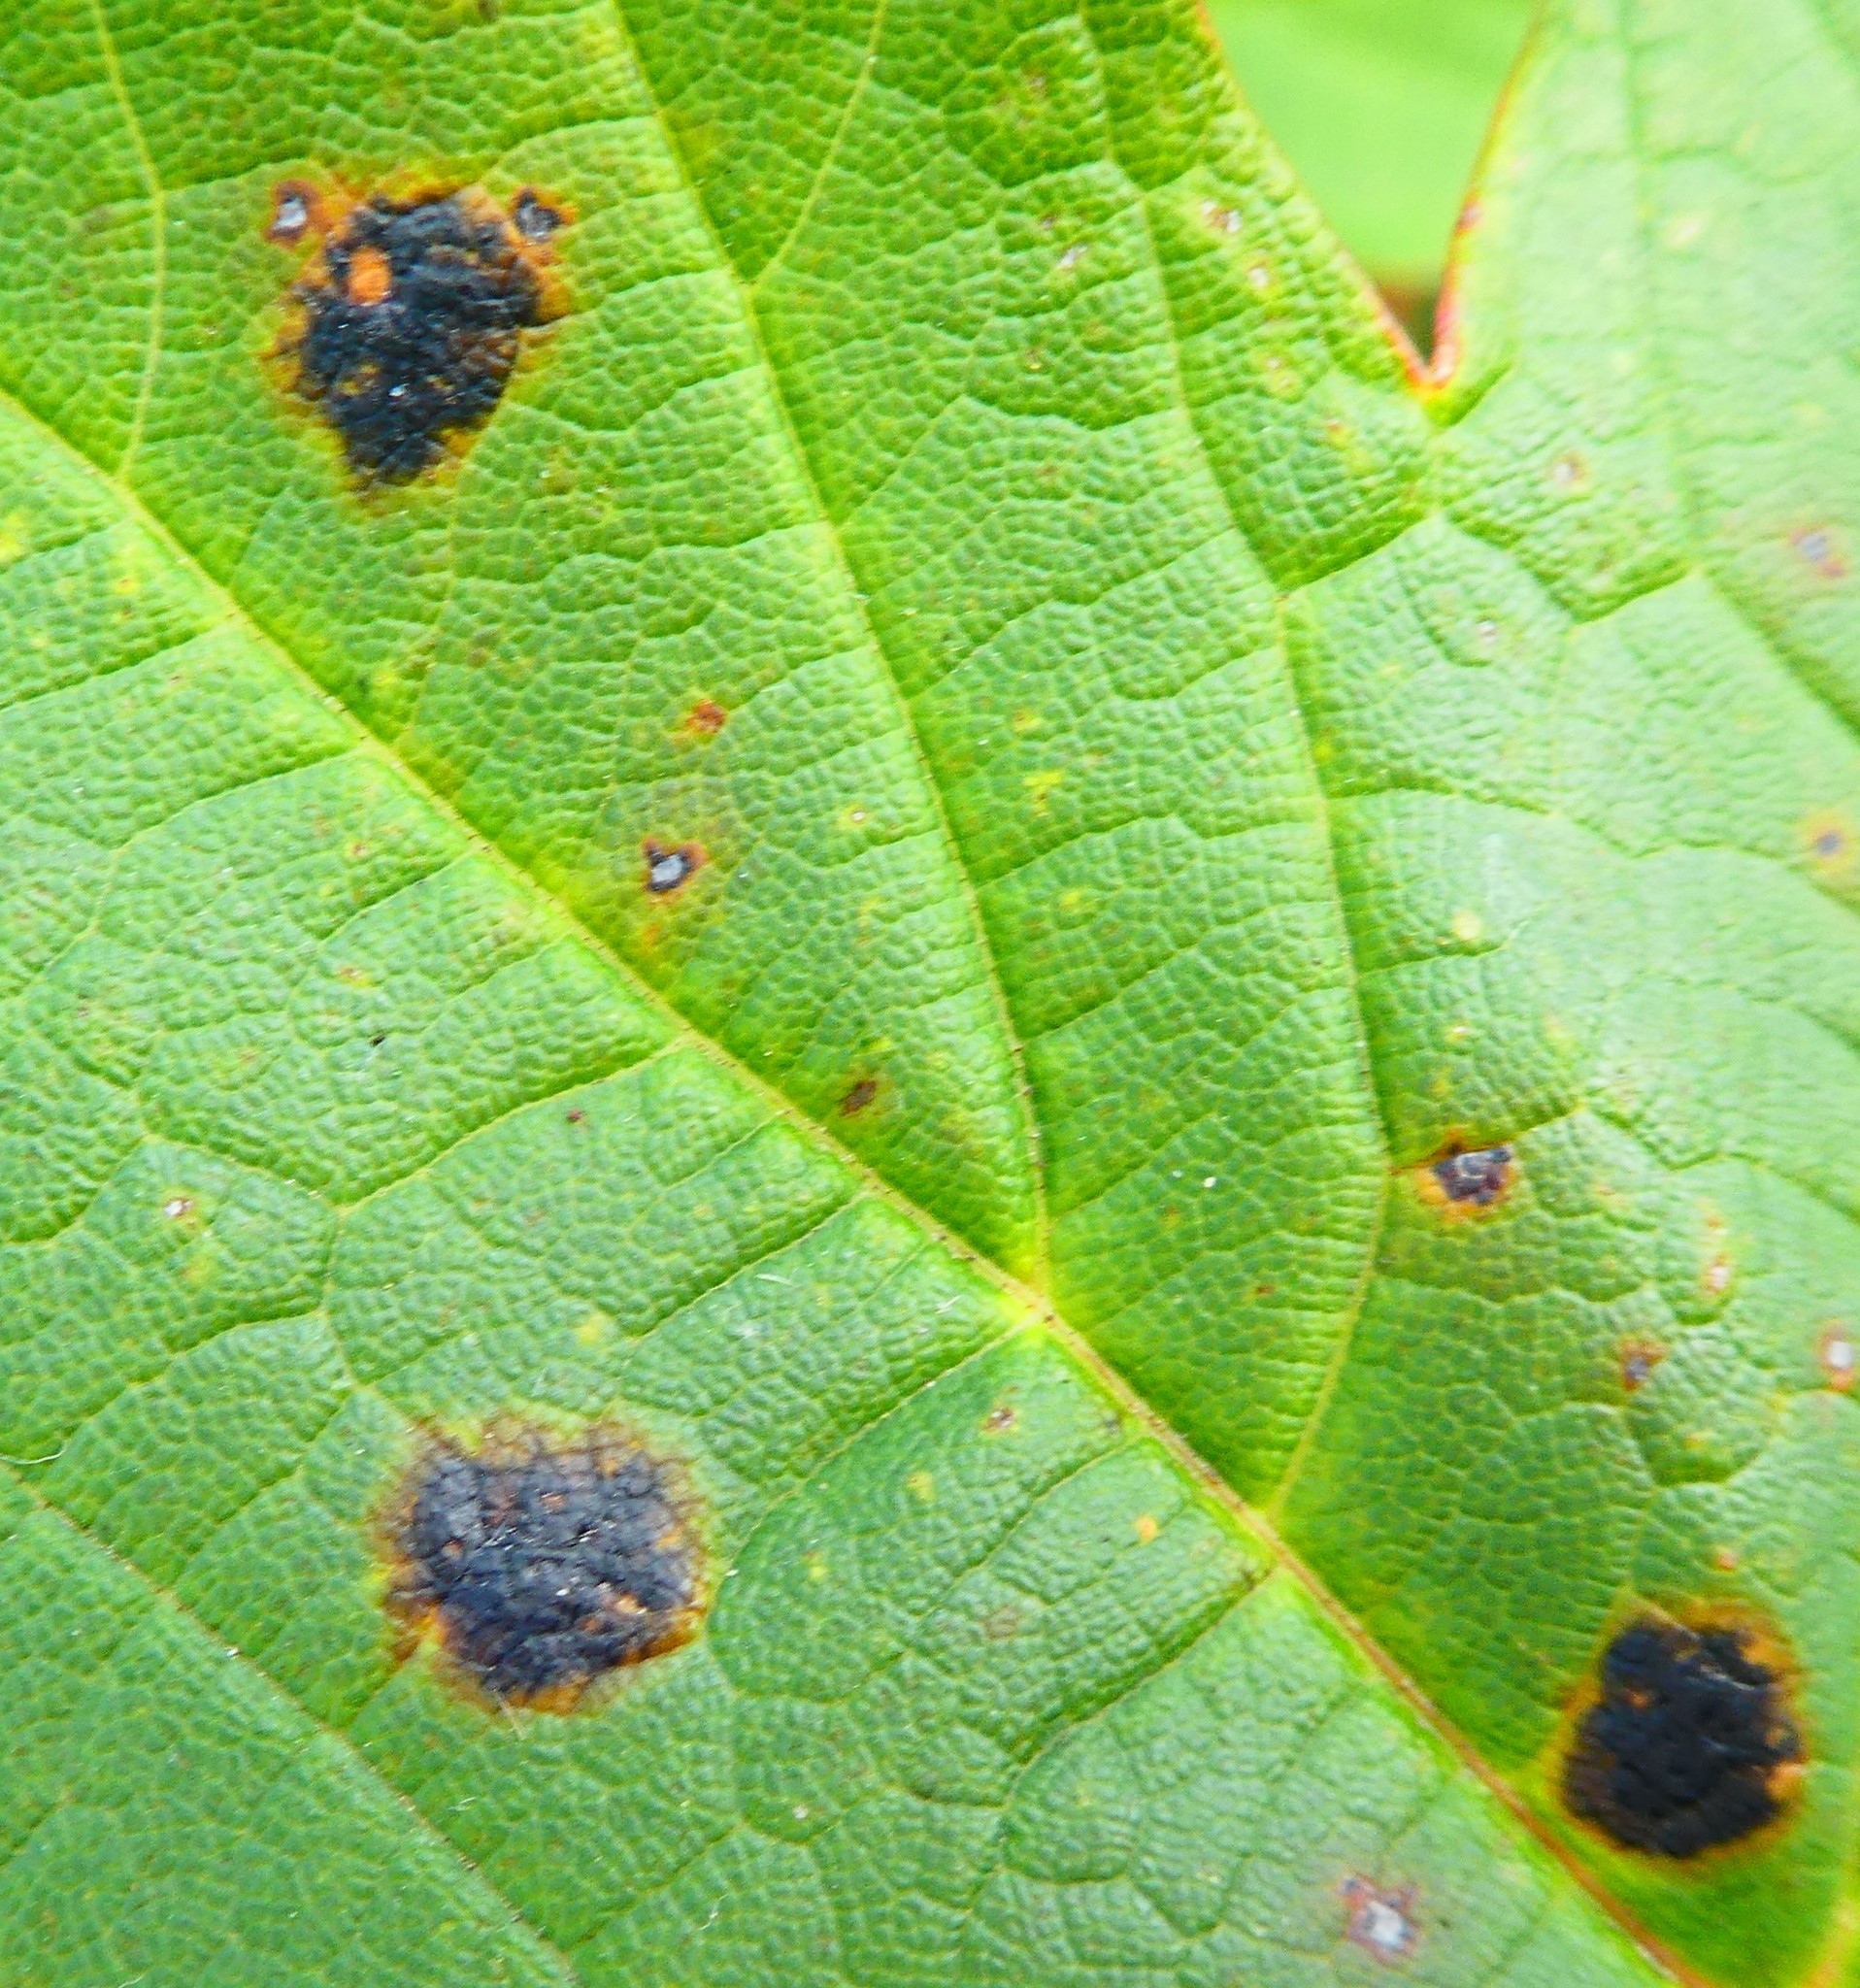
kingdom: Fungi
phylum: Ascomycota
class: Leotiomycetes
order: Rhytismatales
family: Rhytismataceae
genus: Rhytisma
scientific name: Rhytisma acerinum
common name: European tar spot
